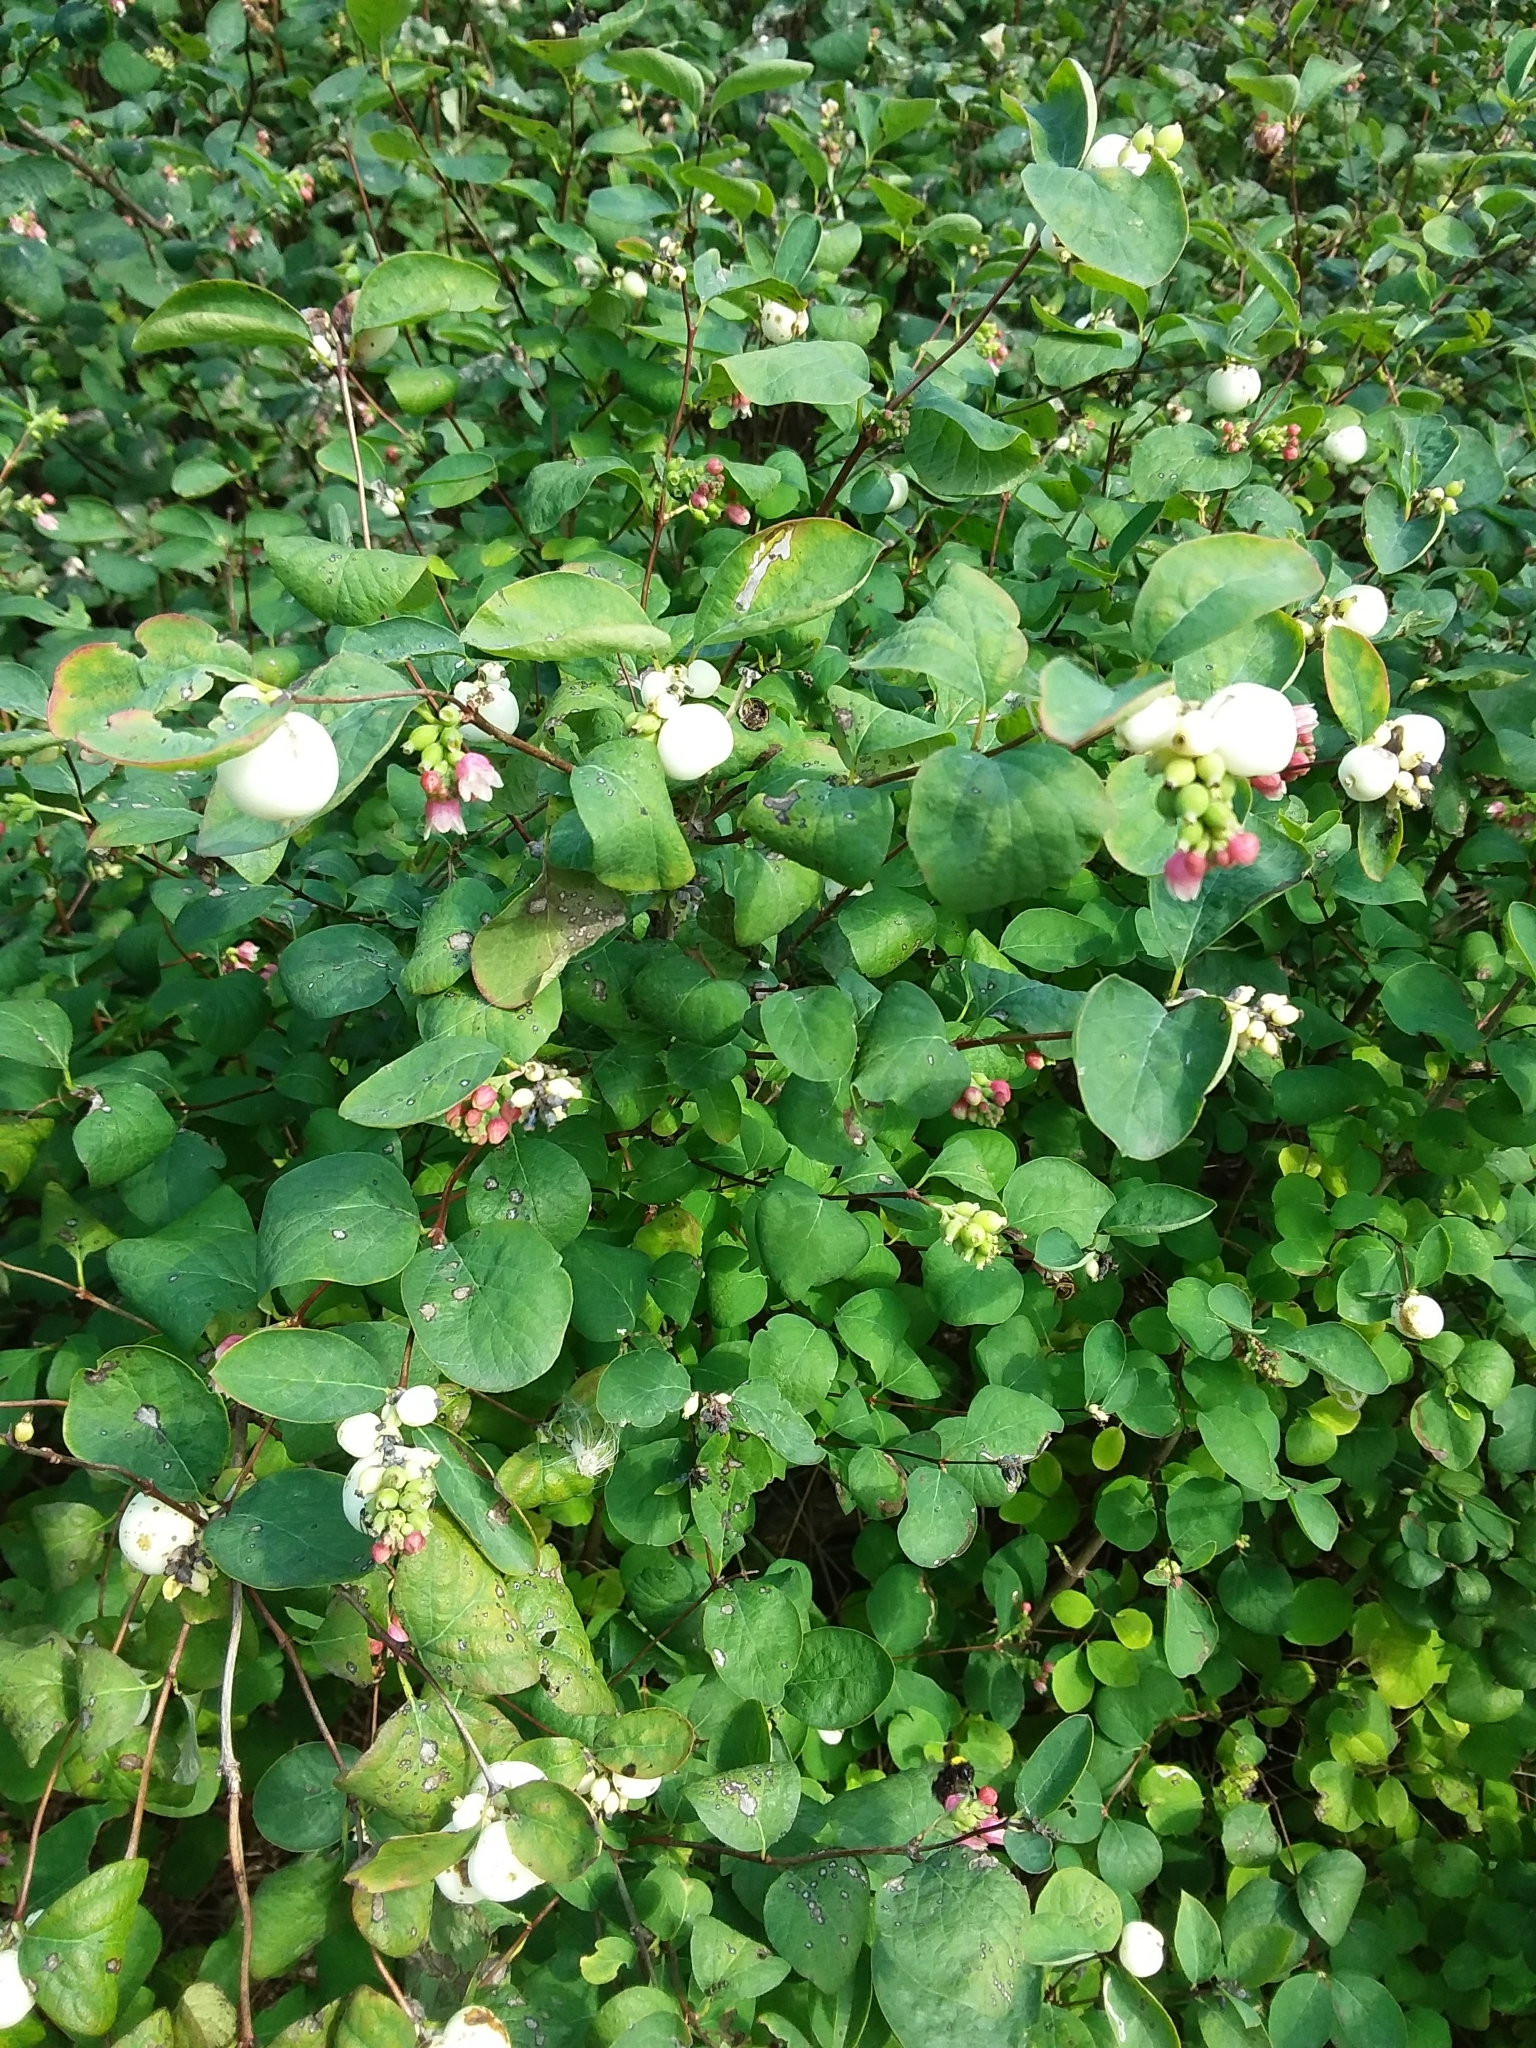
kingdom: Plantae
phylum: Tracheophyta
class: Magnoliopsida
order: Dipsacales
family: Caprifoliaceae
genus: Symphoricarpos
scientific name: Symphoricarpos albus
